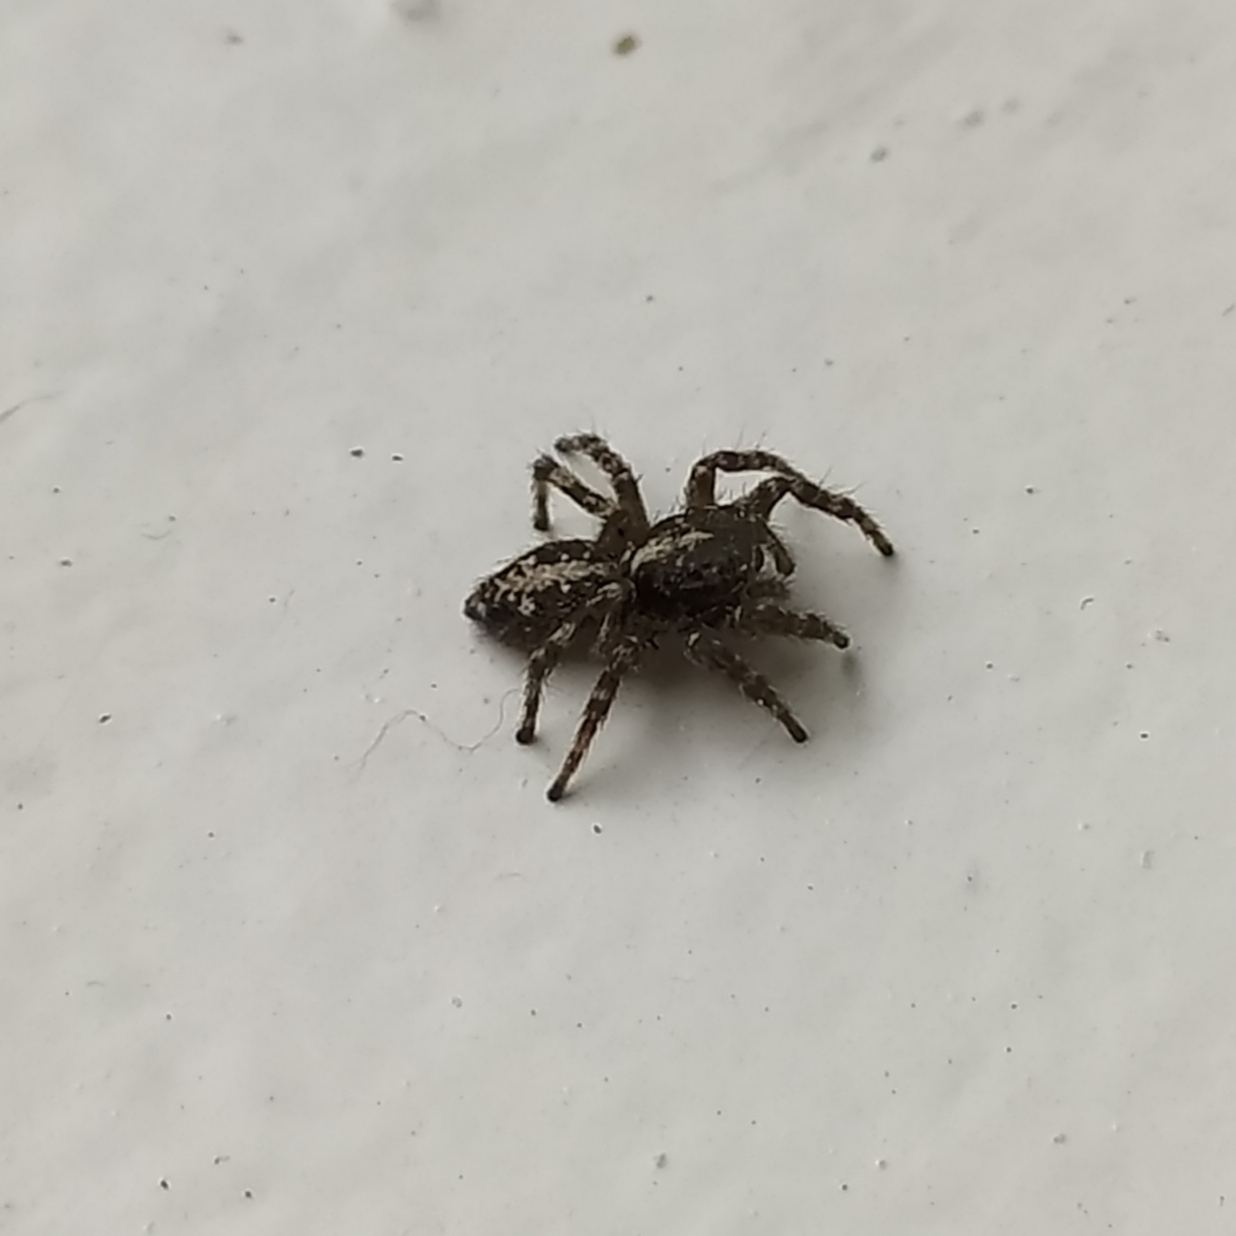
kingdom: Animalia
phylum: Arthropoda
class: Arachnida
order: Araneae
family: Salticidae
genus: Attulus
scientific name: Attulus terebratus
